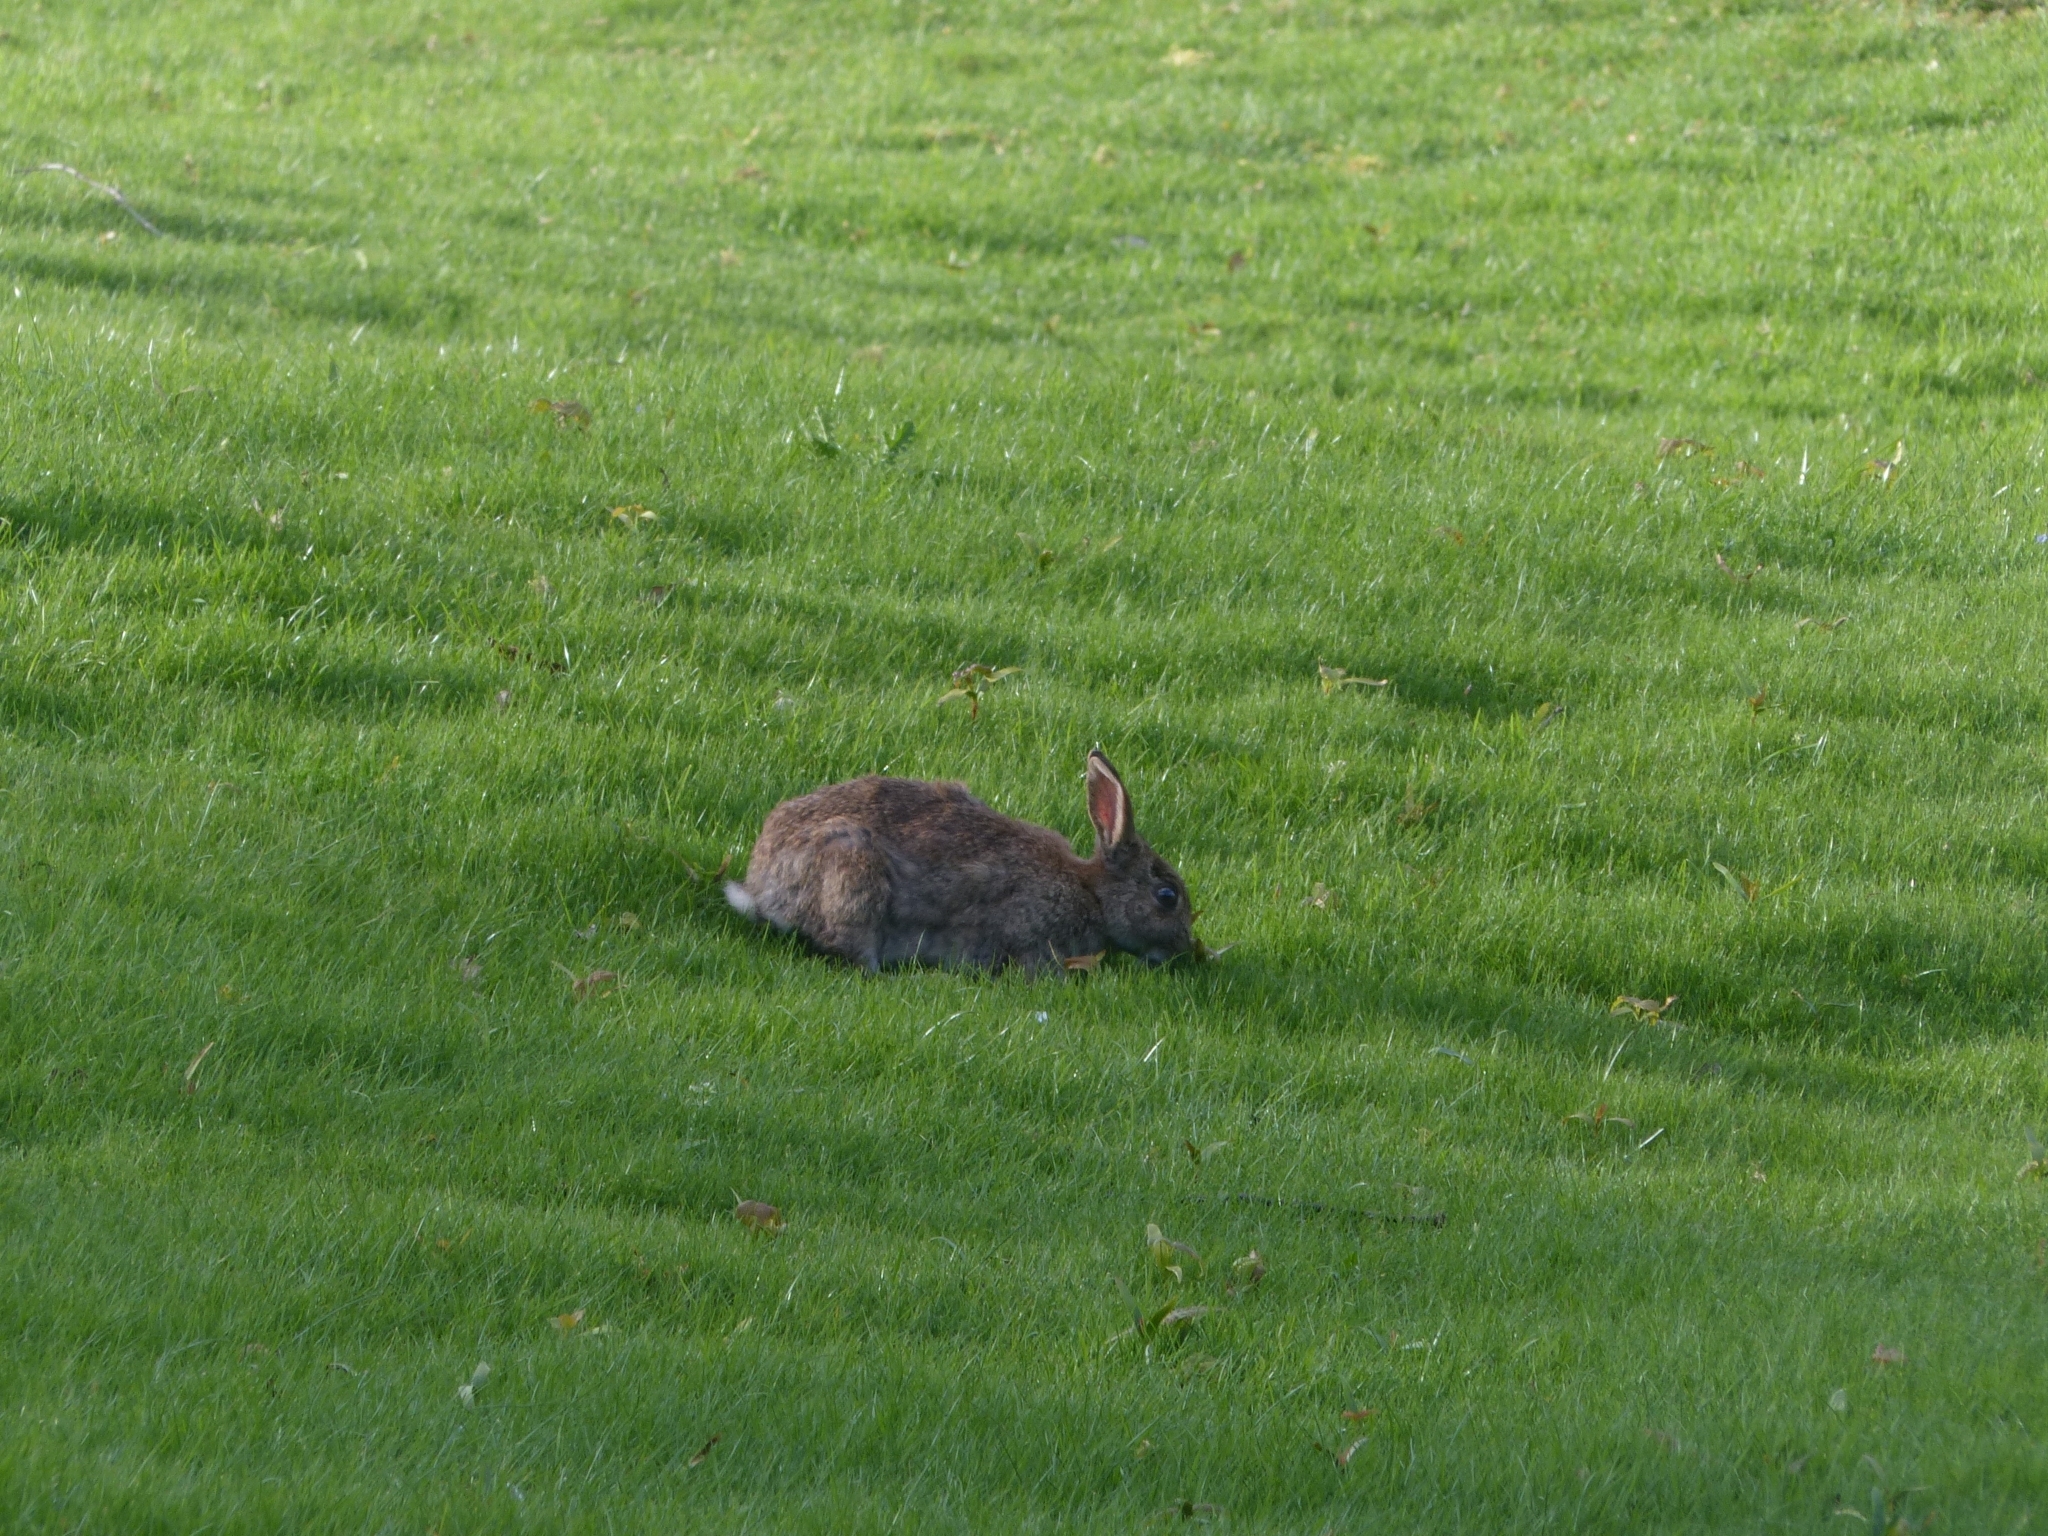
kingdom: Animalia
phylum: Chordata
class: Mammalia
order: Lagomorpha
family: Leporidae
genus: Oryctolagus
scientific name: Oryctolagus cuniculus
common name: European rabbit
